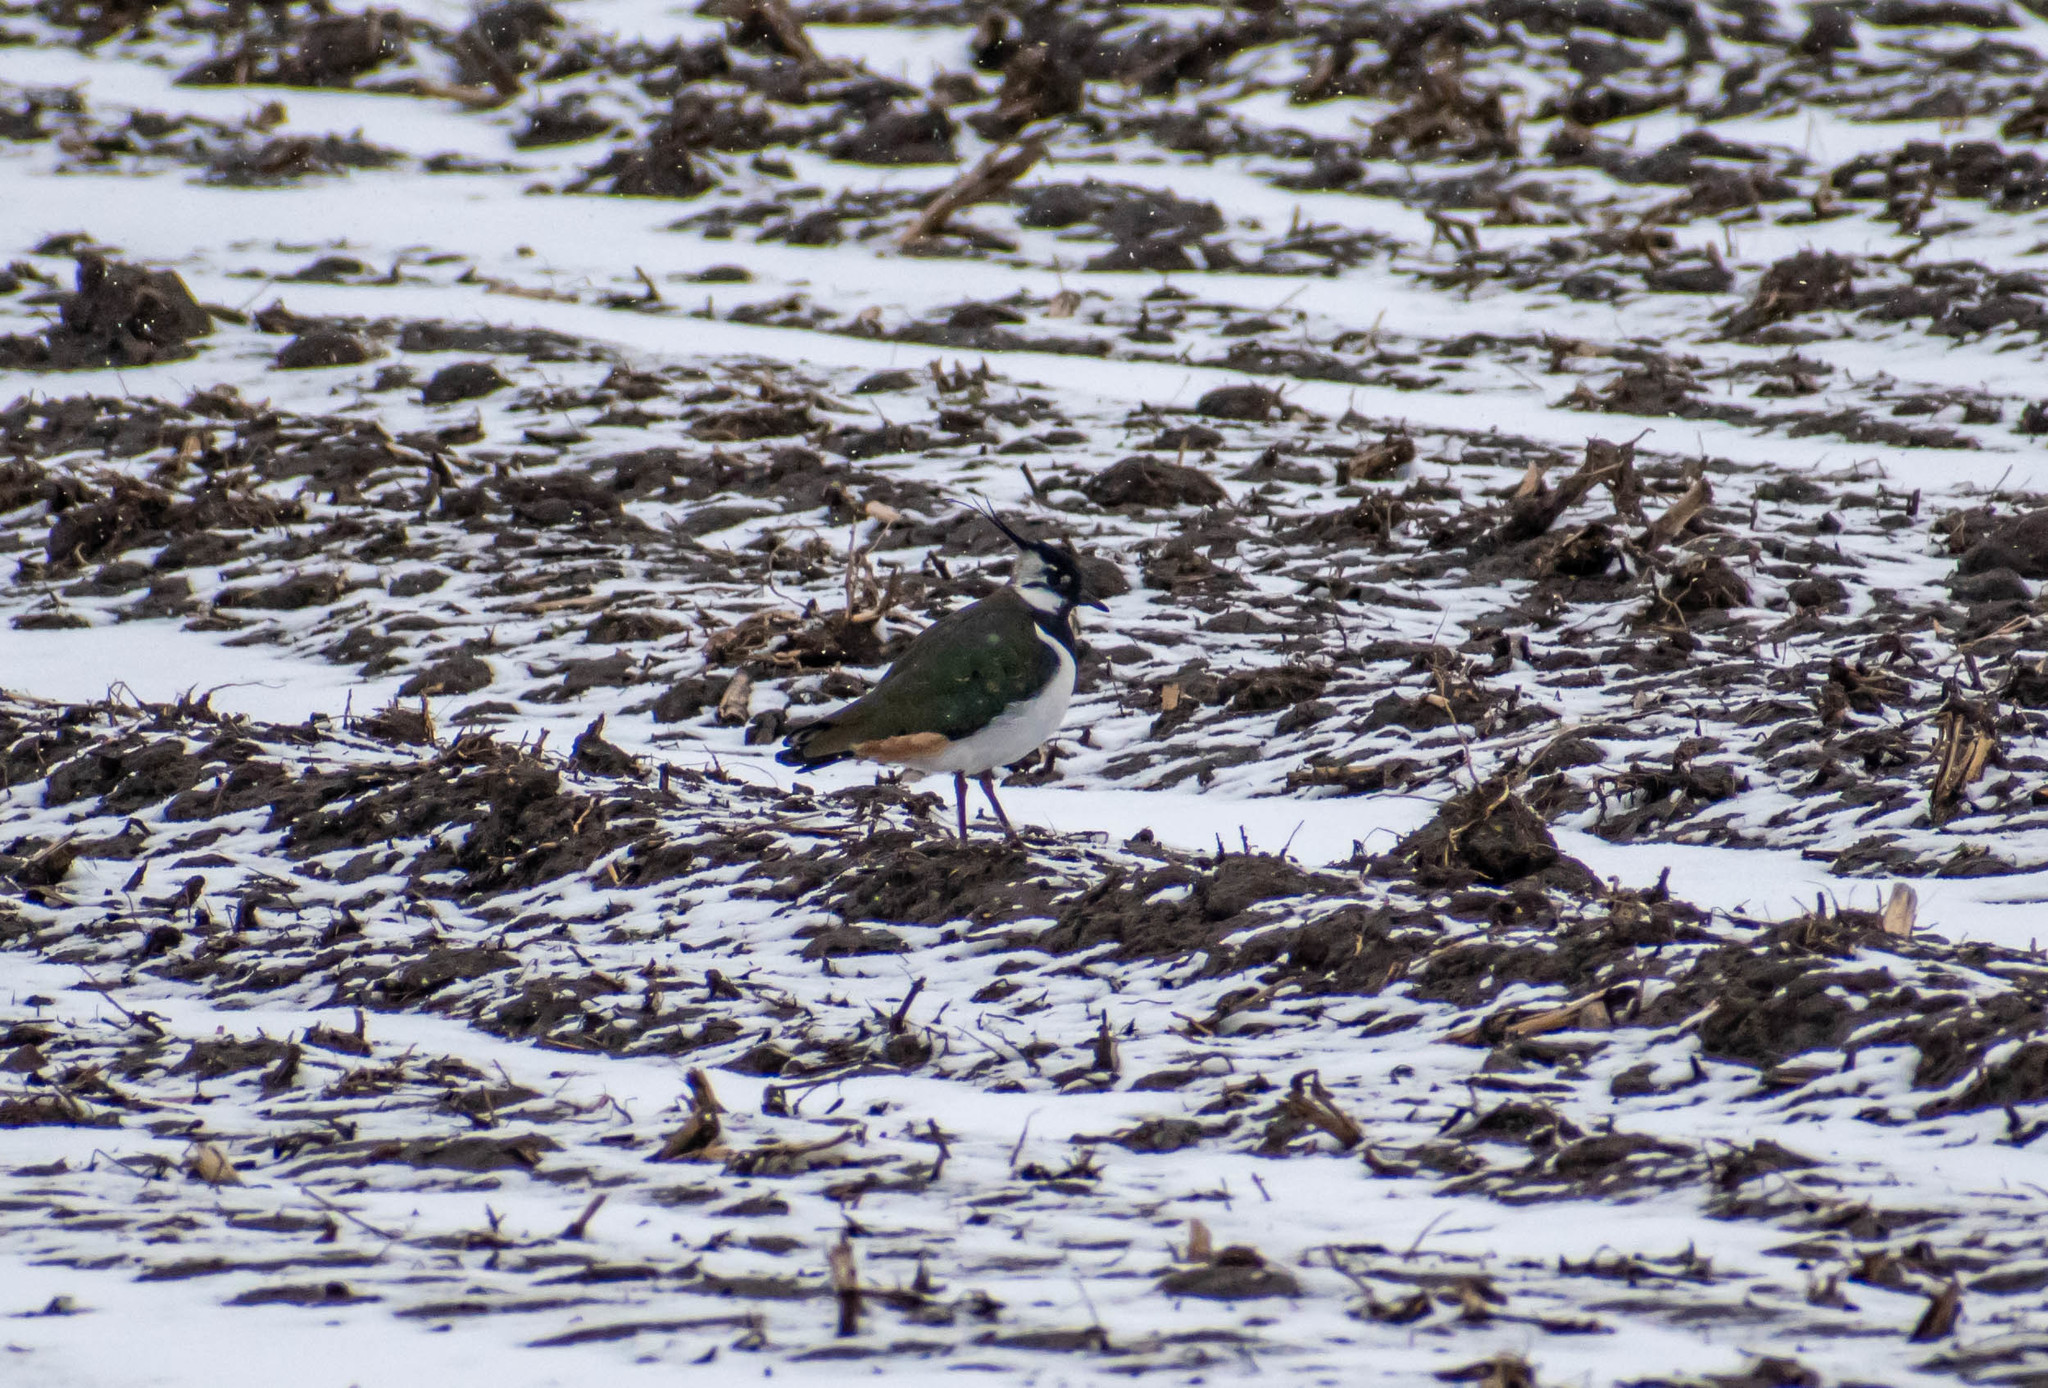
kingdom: Animalia
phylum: Chordata
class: Aves
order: Charadriiformes
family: Charadriidae
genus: Vanellus
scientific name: Vanellus vanellus
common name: Northern lapwing
